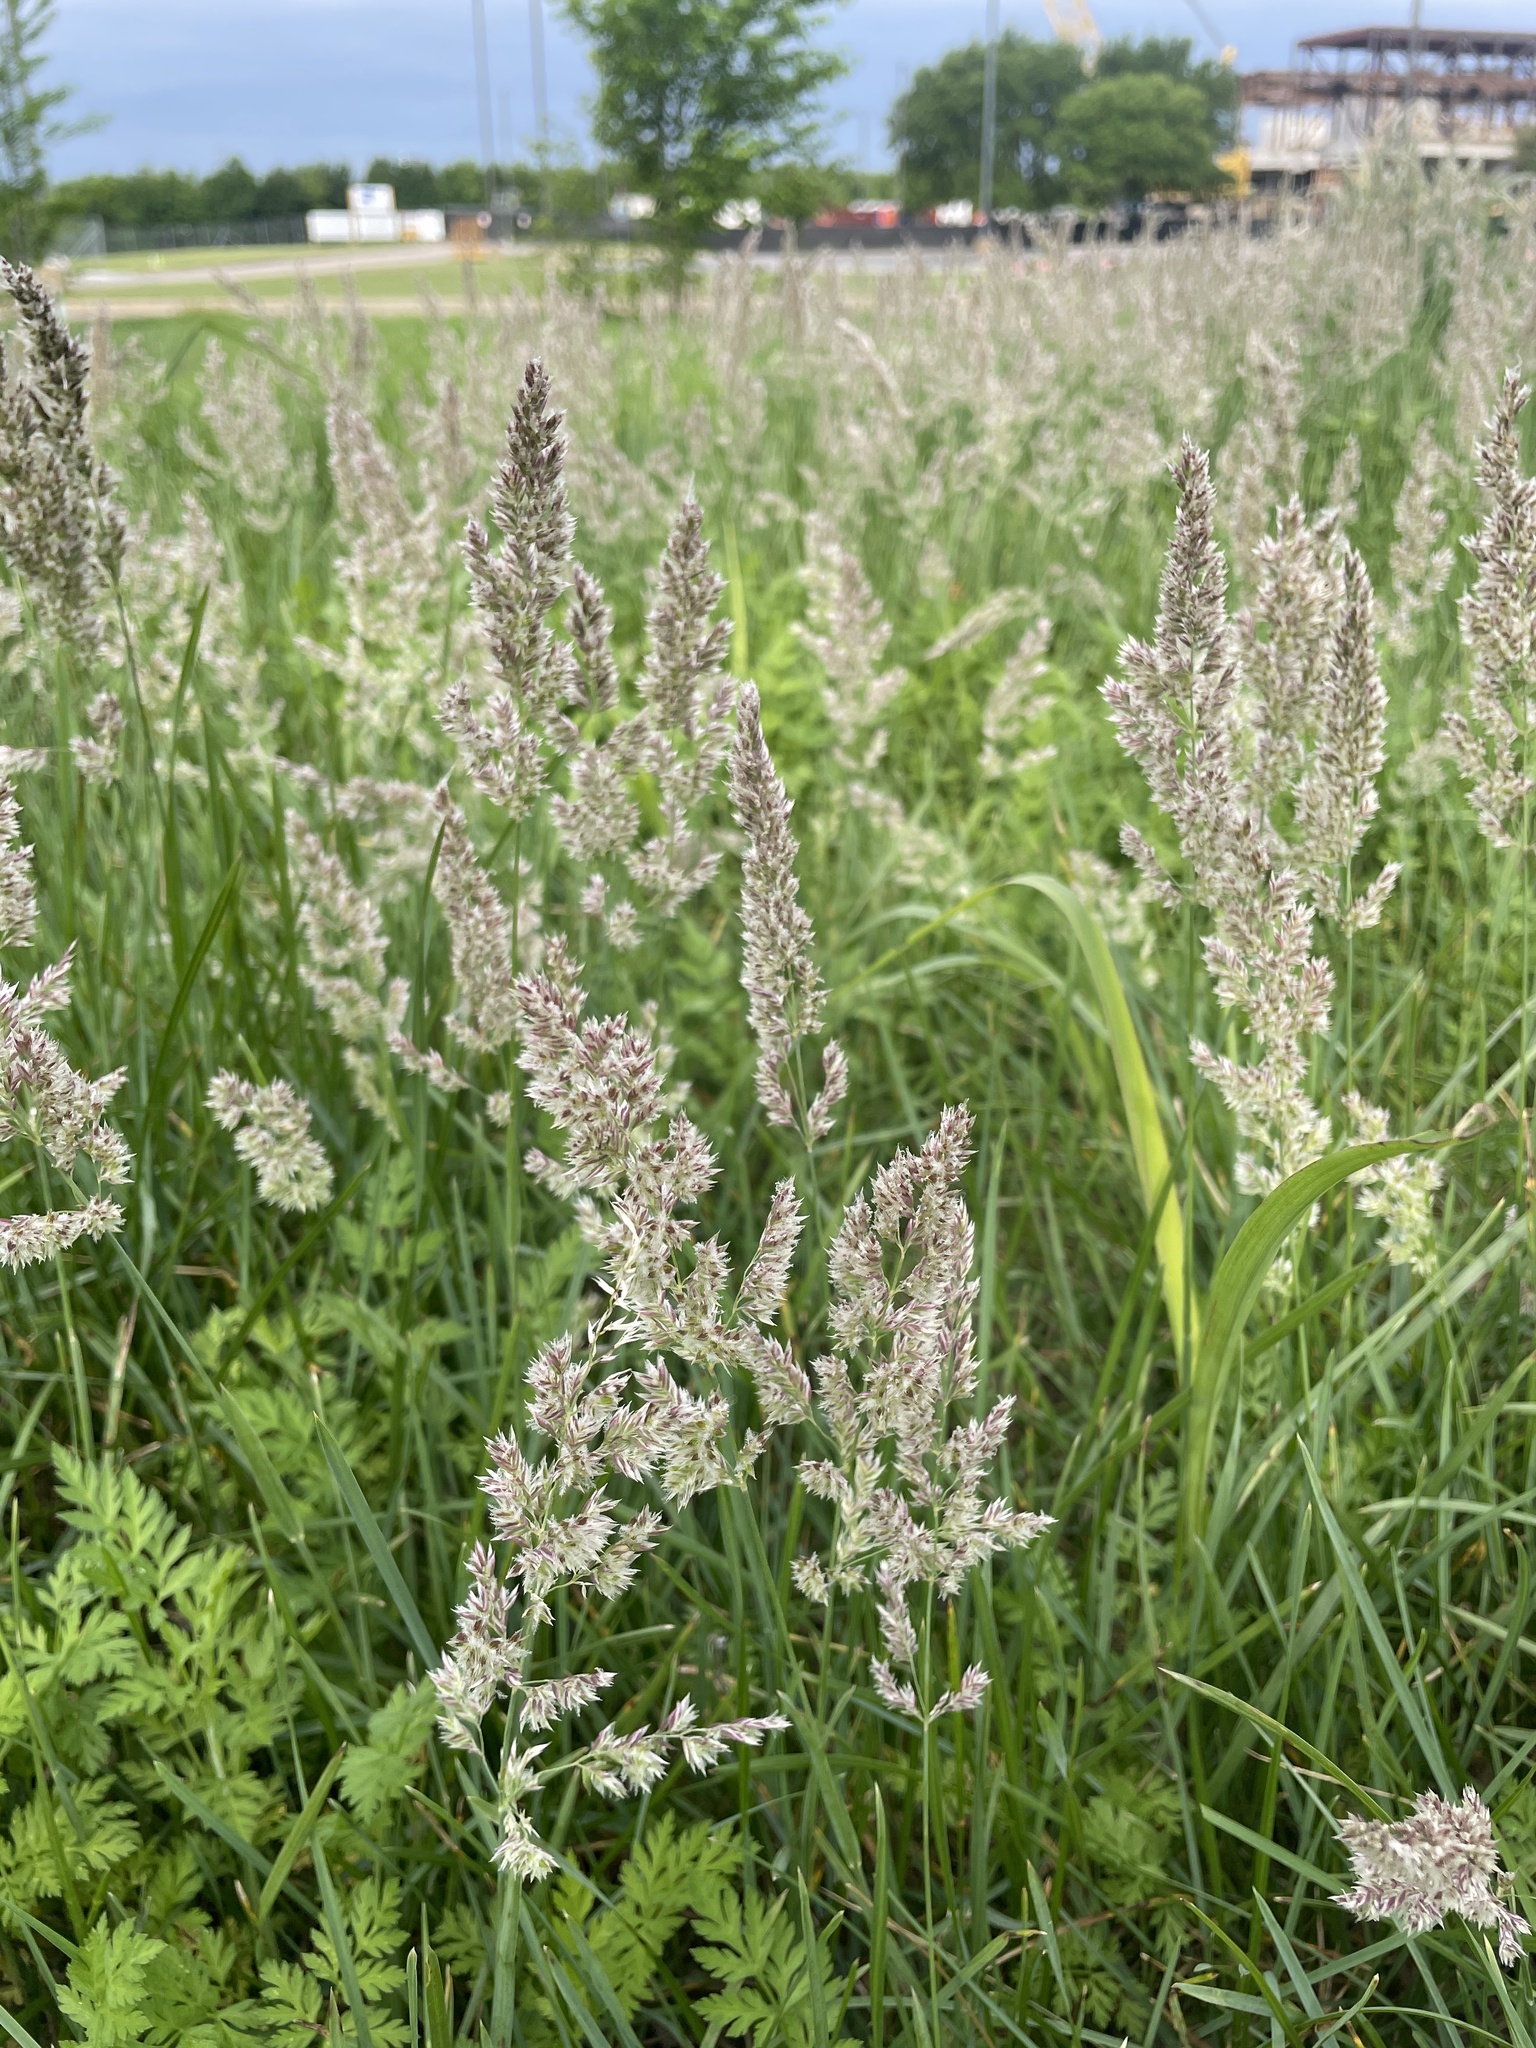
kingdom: Plantae
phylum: Tracheophyta
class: Liliopsida
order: Poales
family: Poaceae
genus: Poa
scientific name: Poa arachnifera
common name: Texas bluegrass
